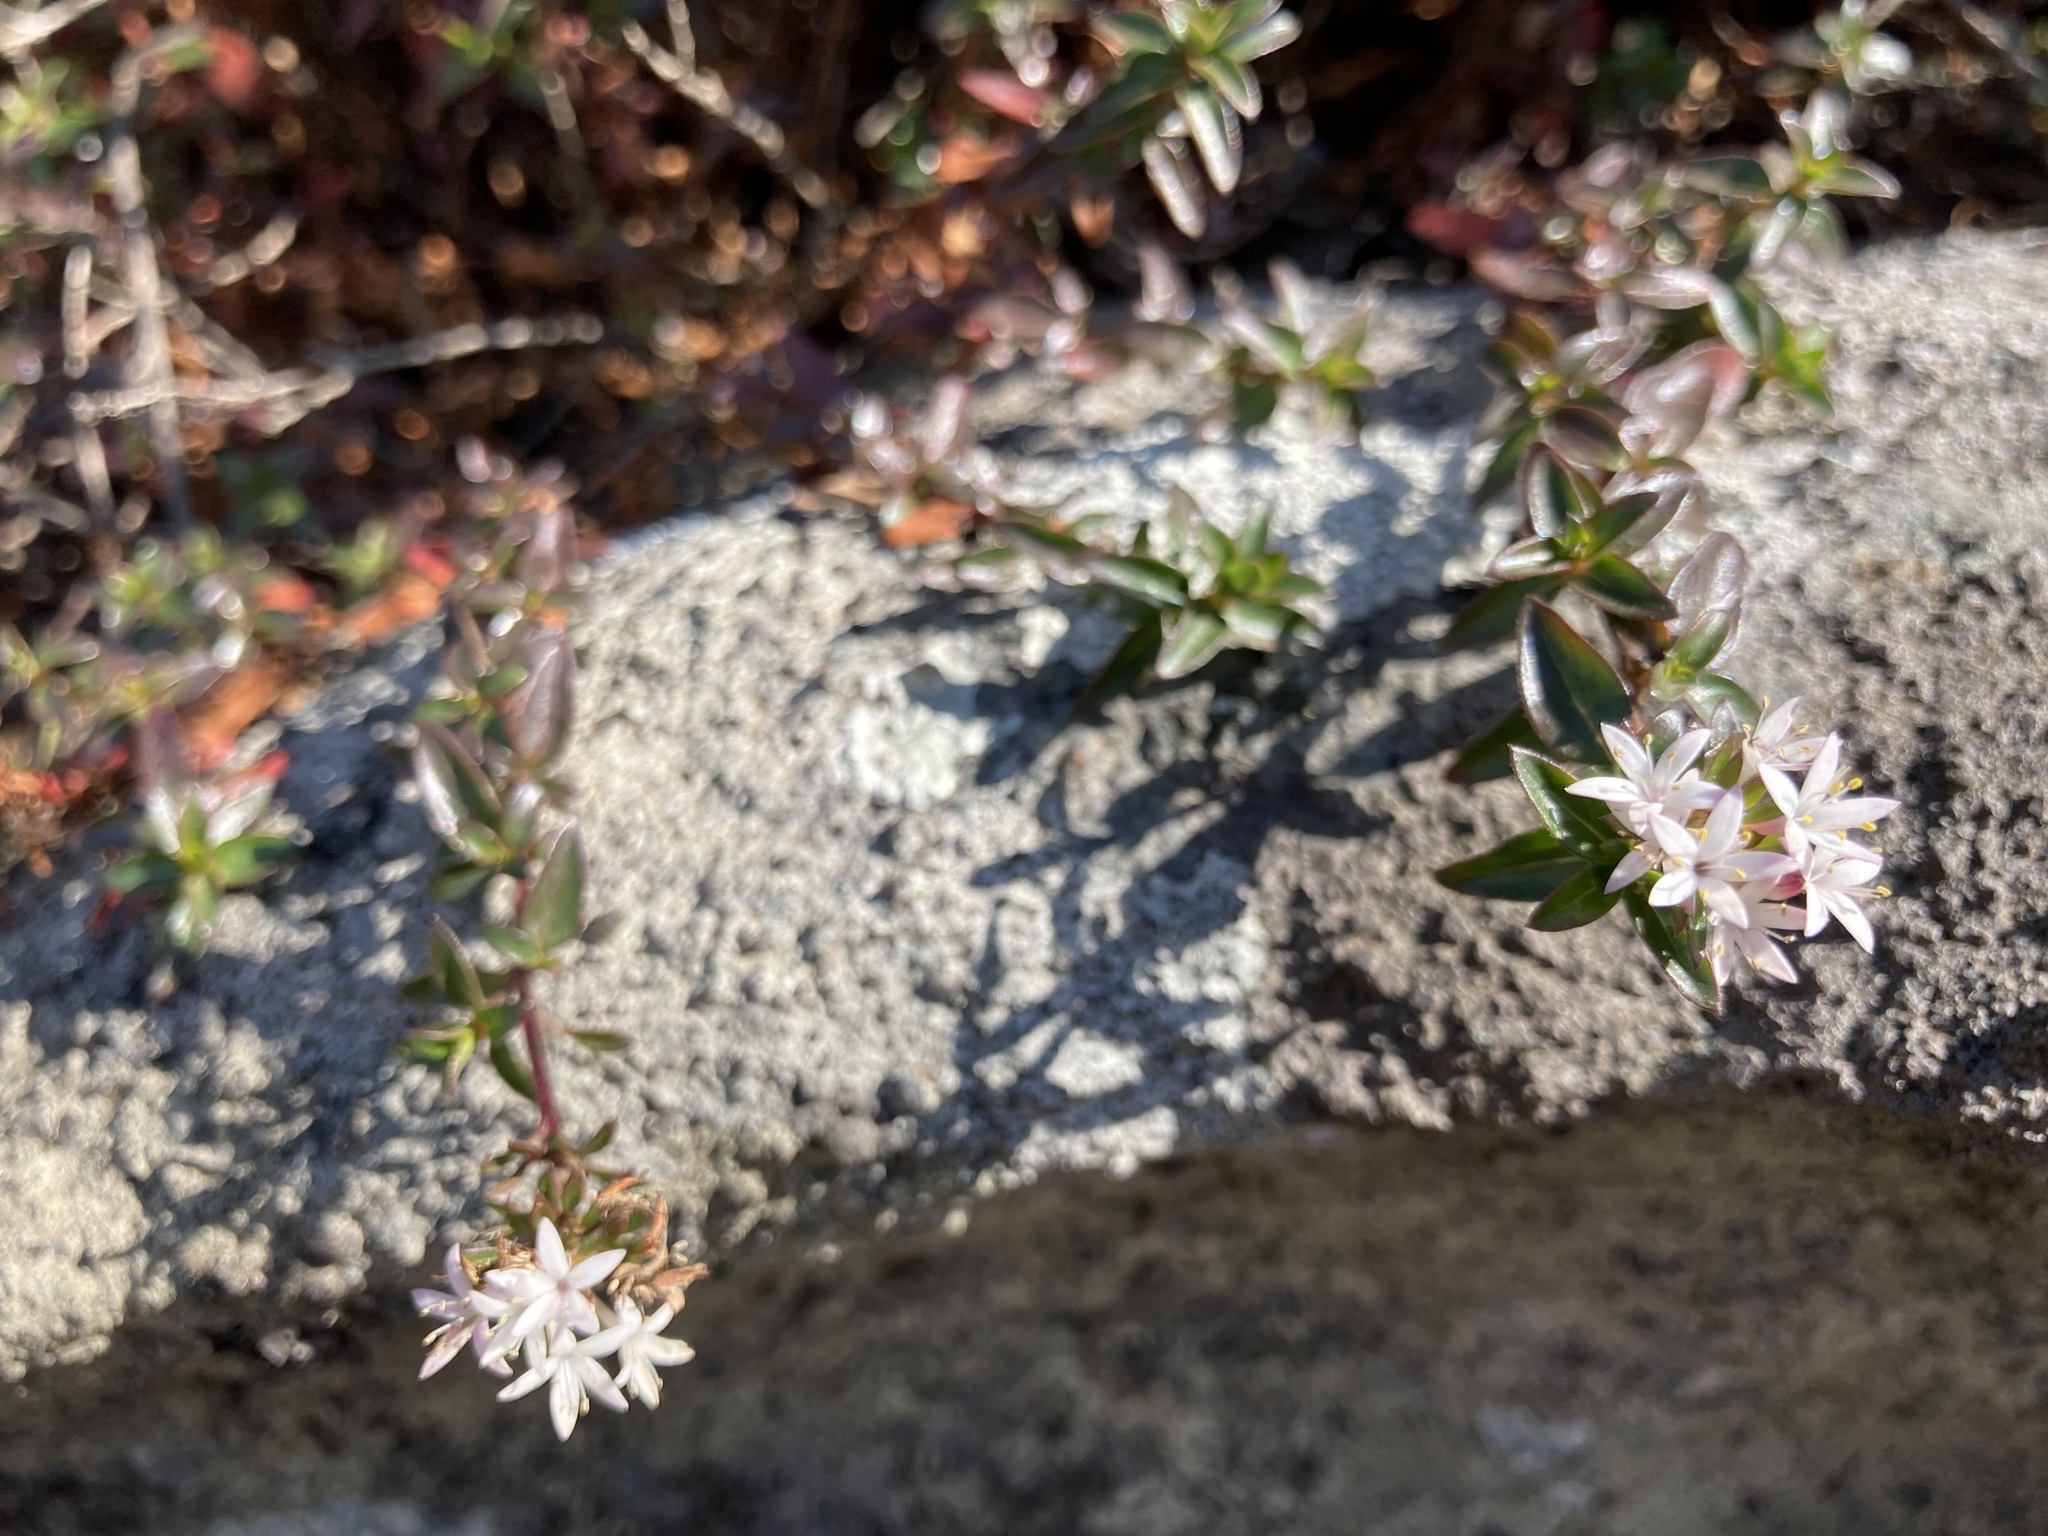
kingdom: Plantae
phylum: Tracheophyta
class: Magnoliopsida
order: Gentianales
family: Rubiaceae
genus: Otiophora
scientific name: Otiophora cupheoides
